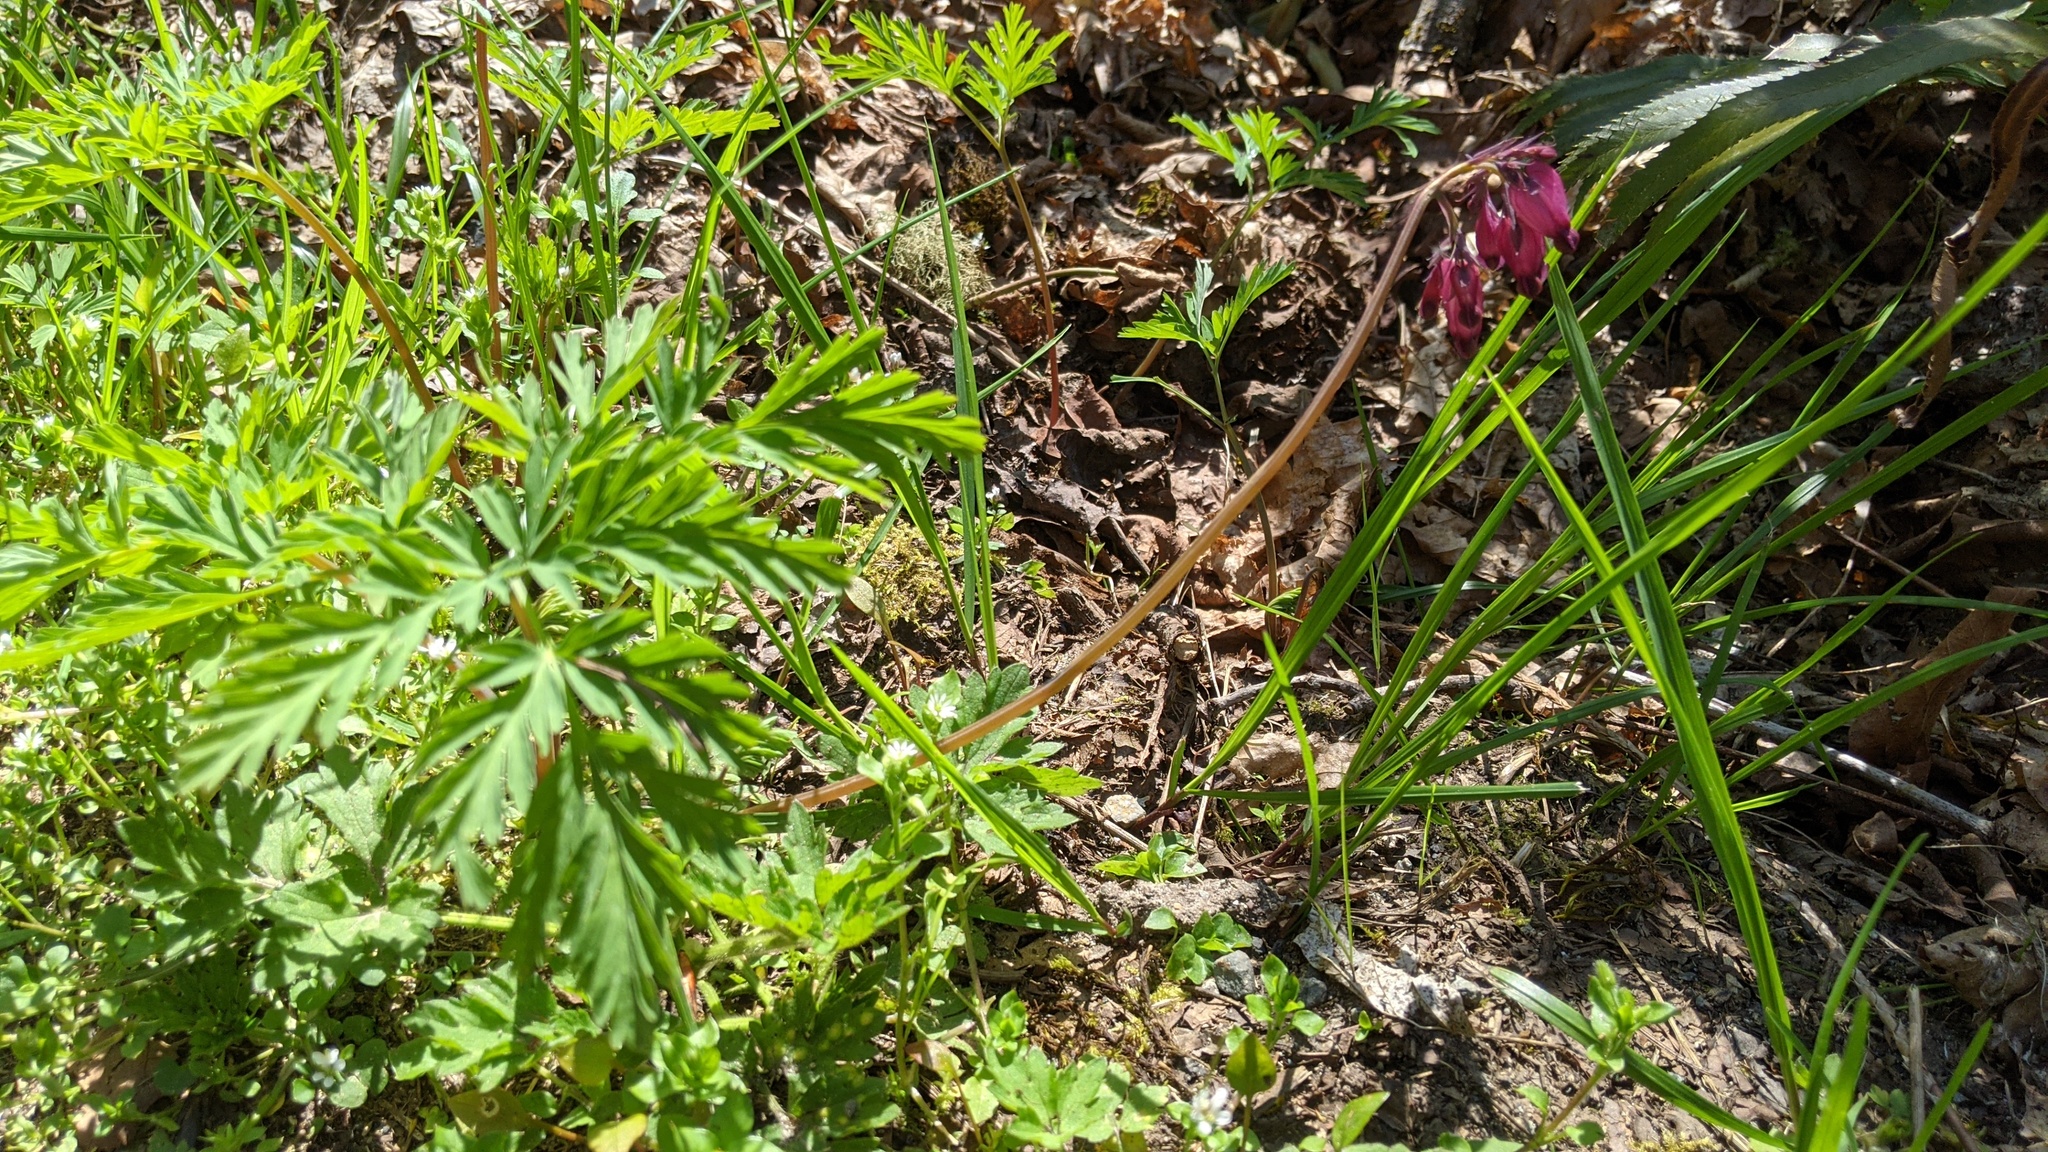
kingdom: Plantae
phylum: Tracheophyta
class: Magnoliopsida
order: Ranunculales
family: Papaveraceae
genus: Dicentra
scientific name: Dicentra formosa
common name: Bleeding-heart
